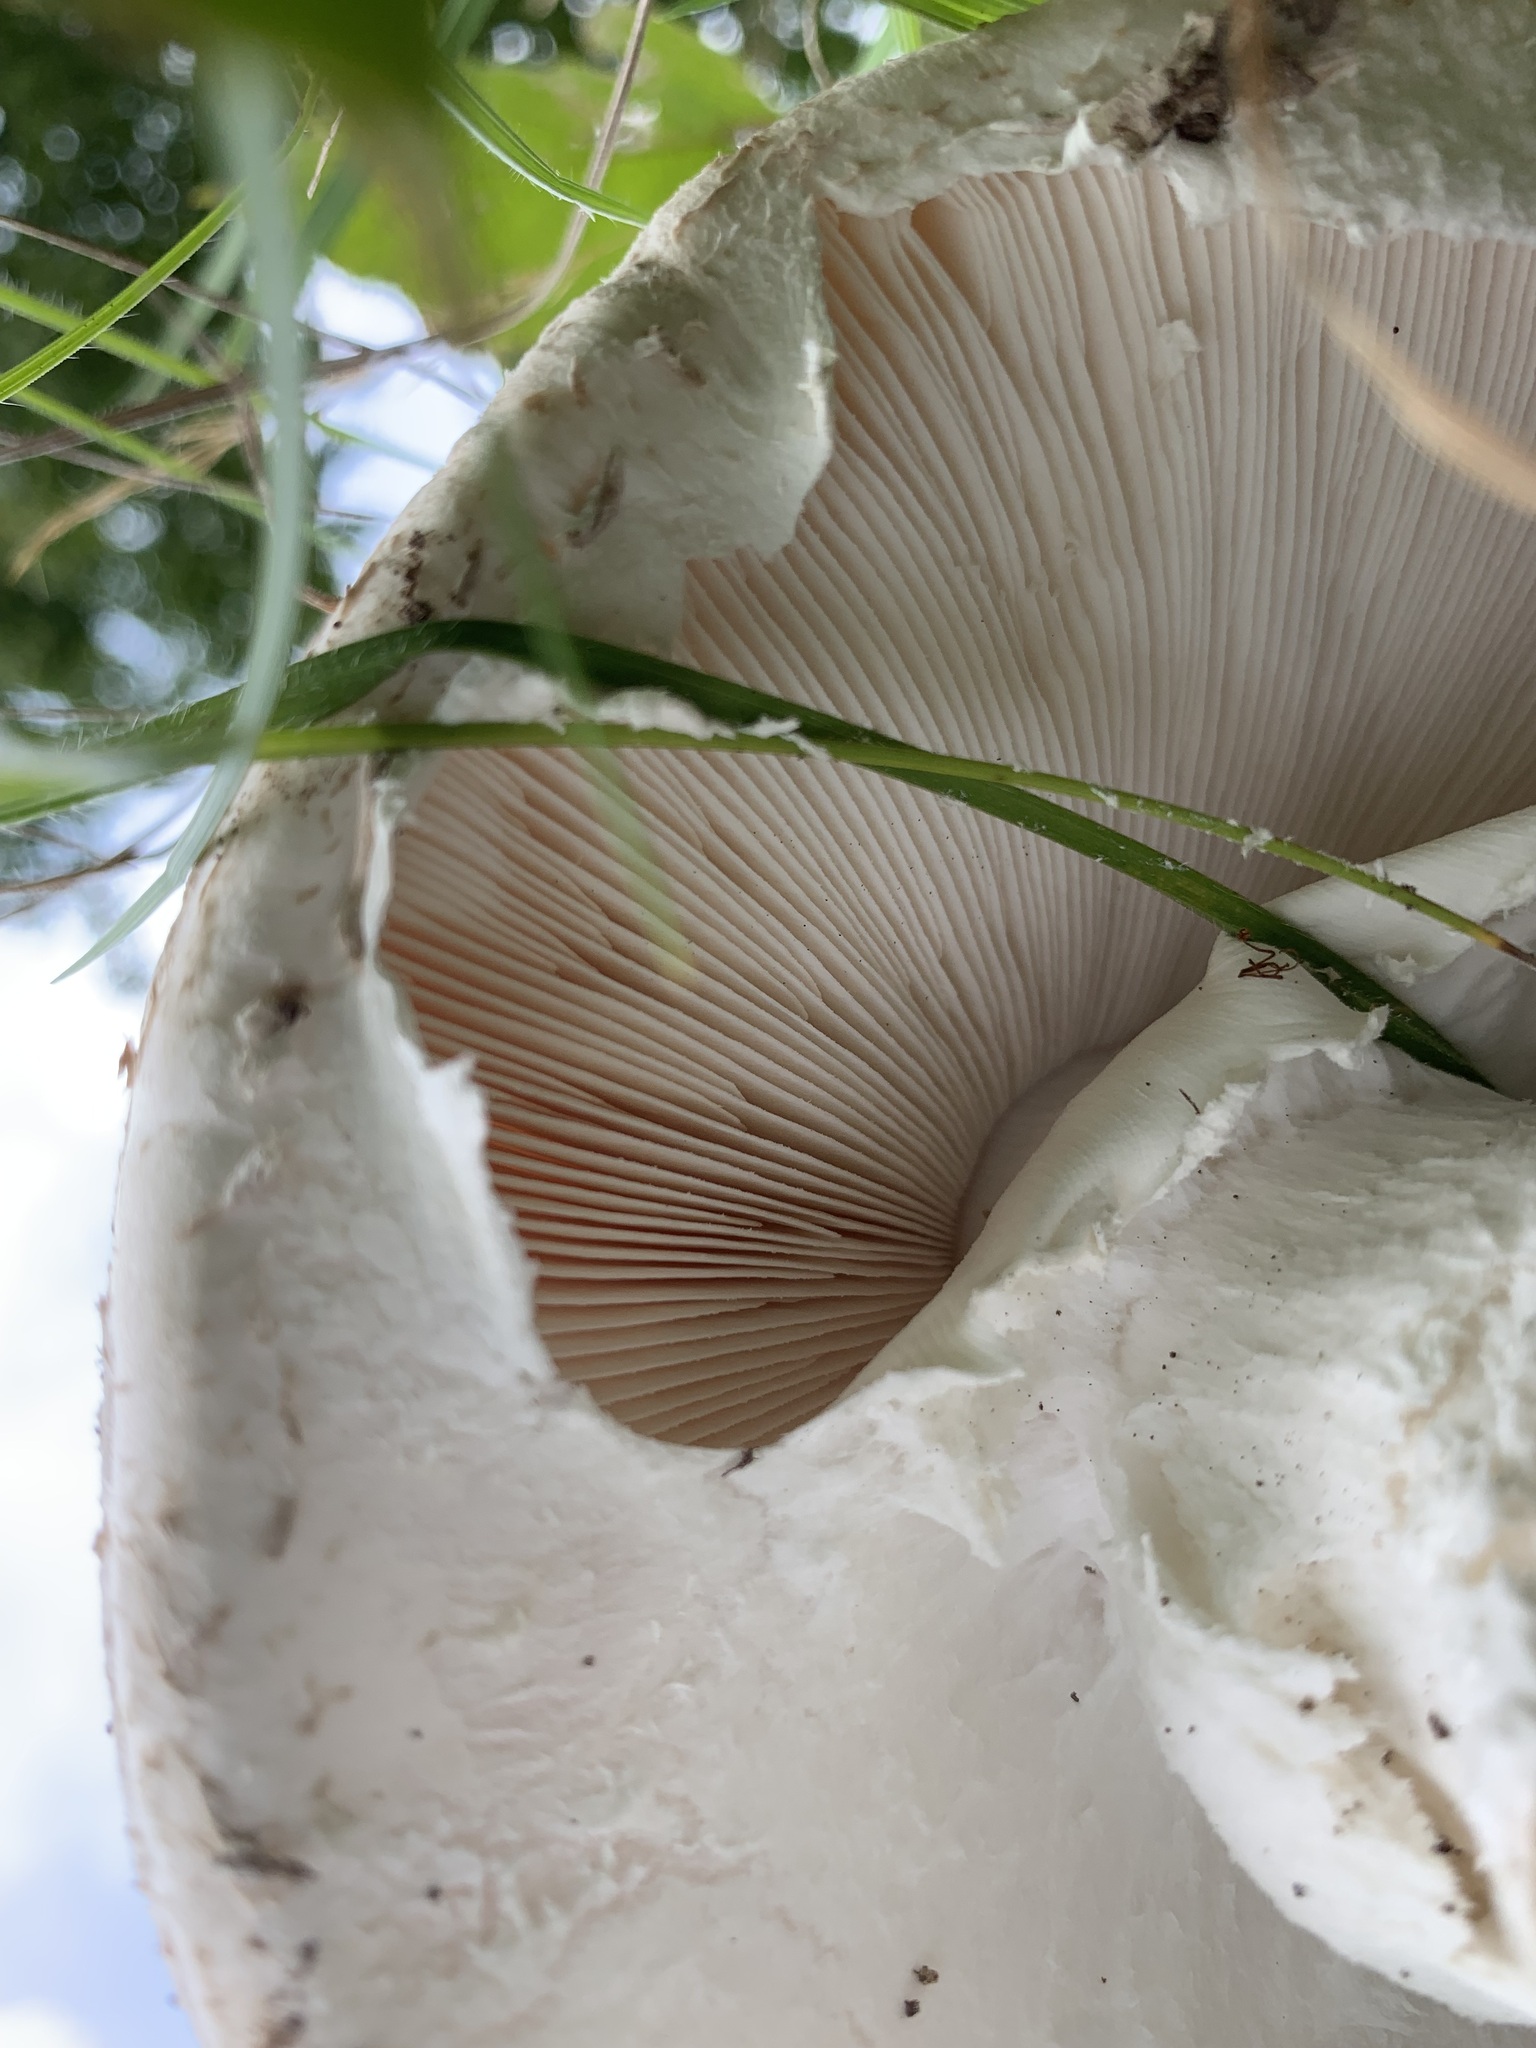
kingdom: Fungi
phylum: Basidiomycota
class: Agaricomycetes
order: Agaricales
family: Amanitaceae
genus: Amanita
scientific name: Amanita strobiliformis
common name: Warted amanita
